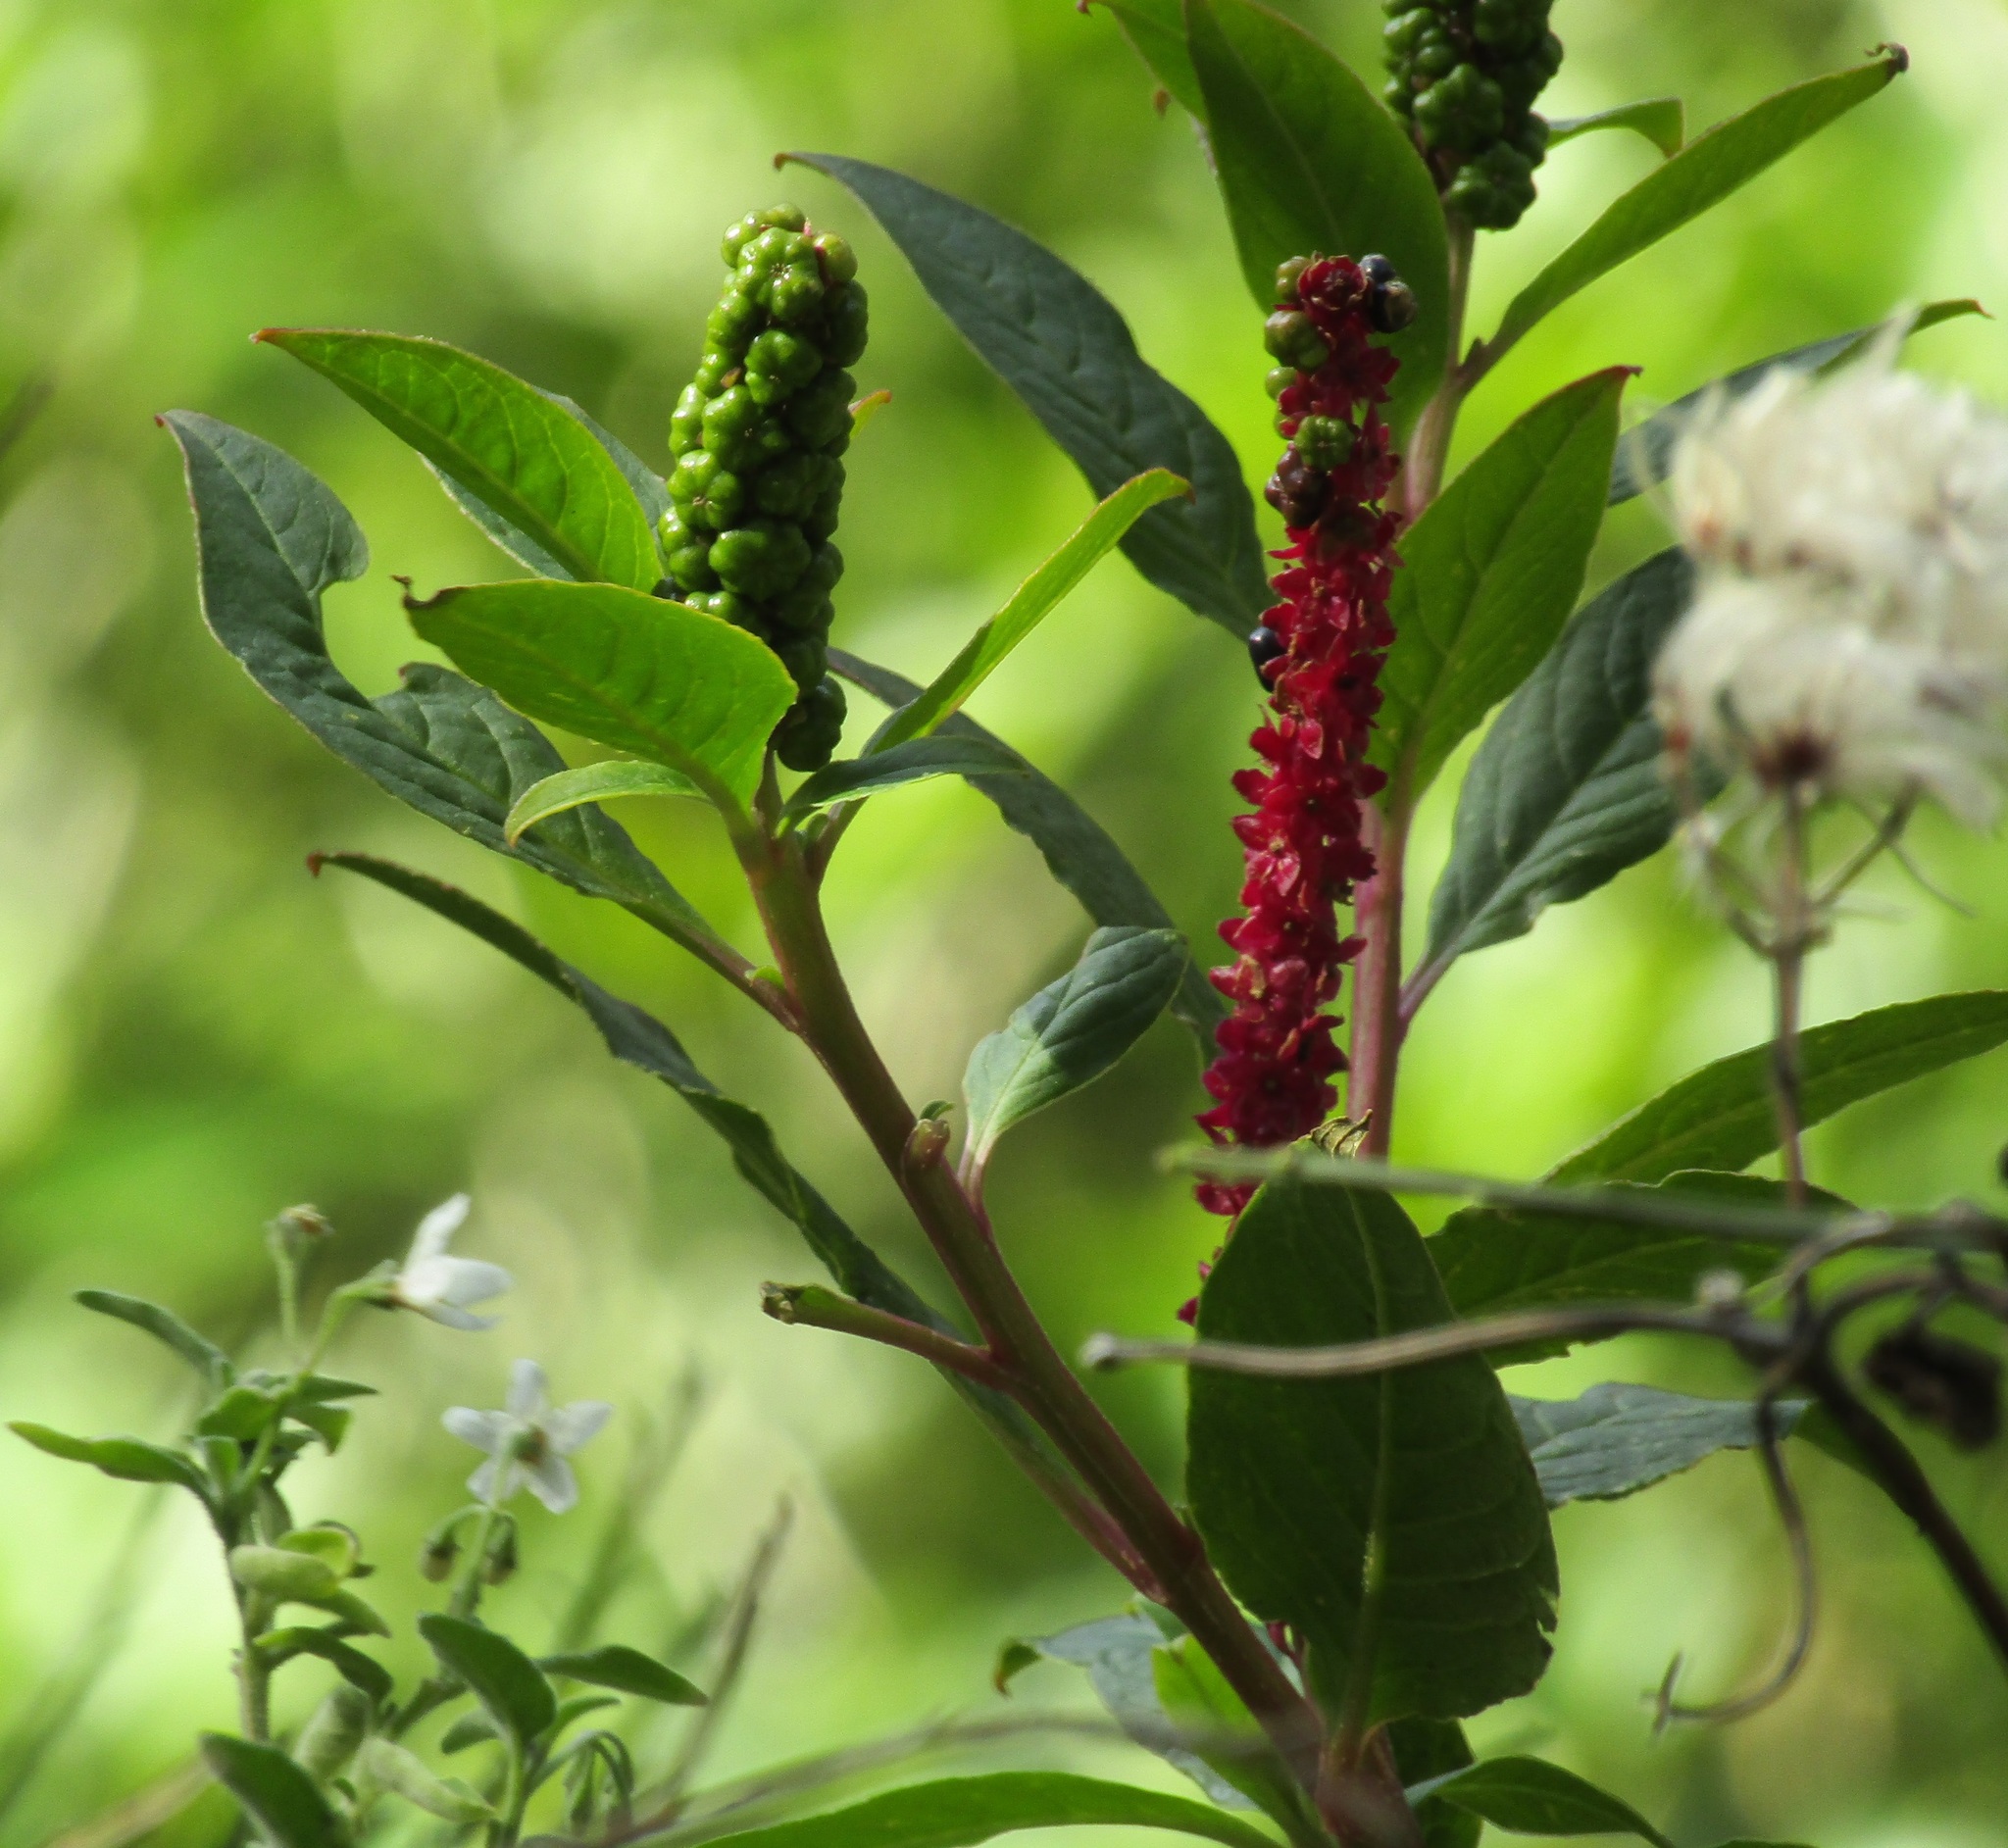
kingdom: Plantae
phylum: Tracheophyta
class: Magnoliopsida
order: Caryophyllales
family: Phytolaccaceae
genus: Phytolacca
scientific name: Phytolacca icosandra
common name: Button pokeweed
